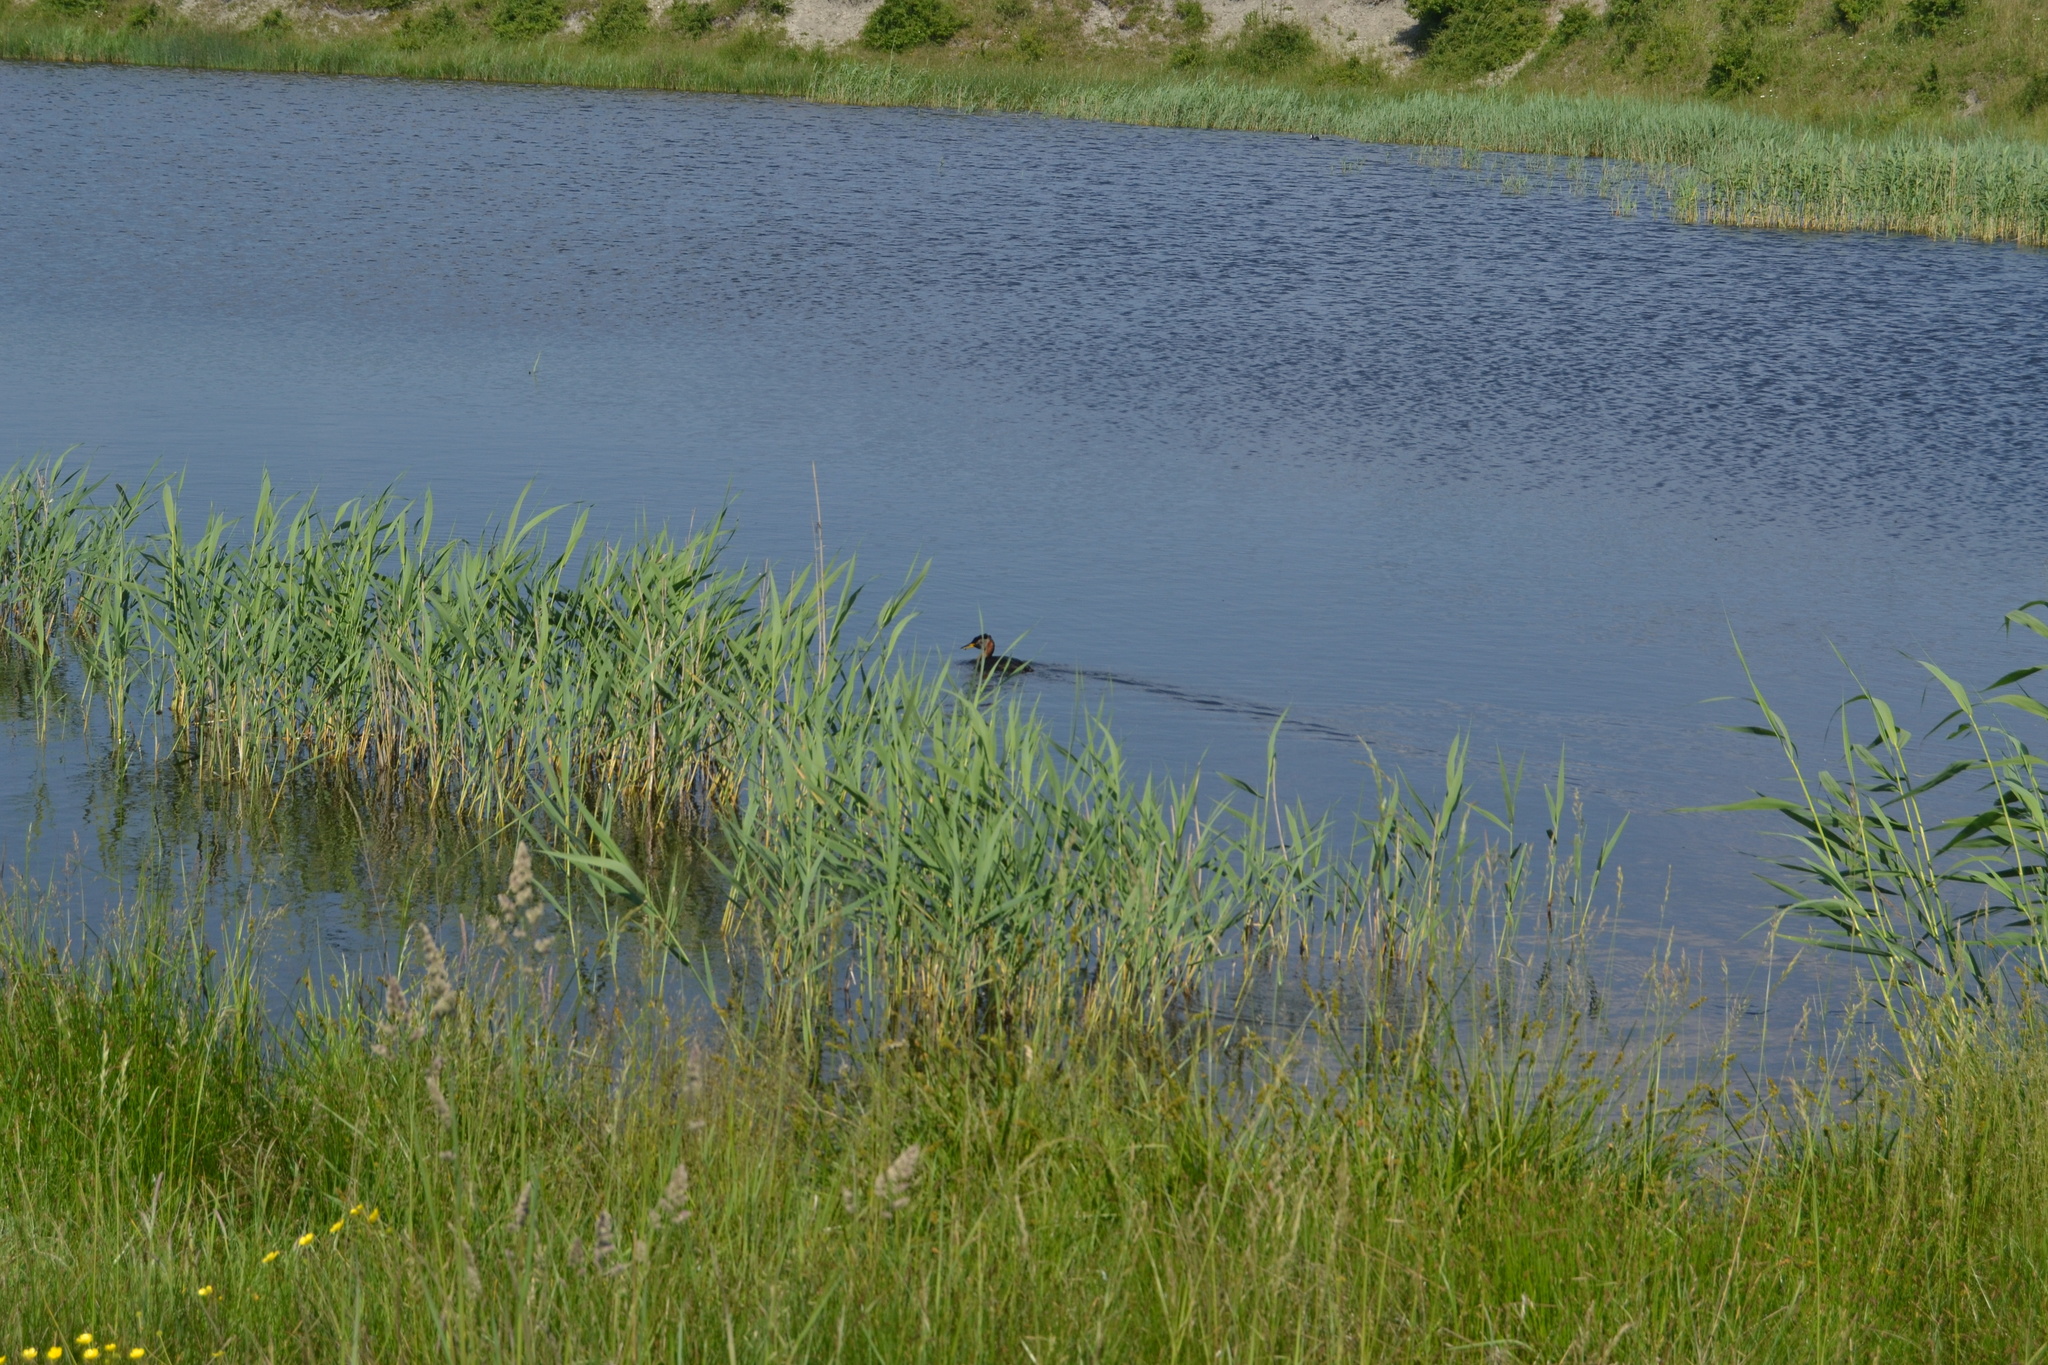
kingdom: Animalia
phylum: Chordata
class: Aves
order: Podicipediformes
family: Podicipedidae
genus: Podiceps
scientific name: Podiceps grisegena
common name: Red-necked grebe
